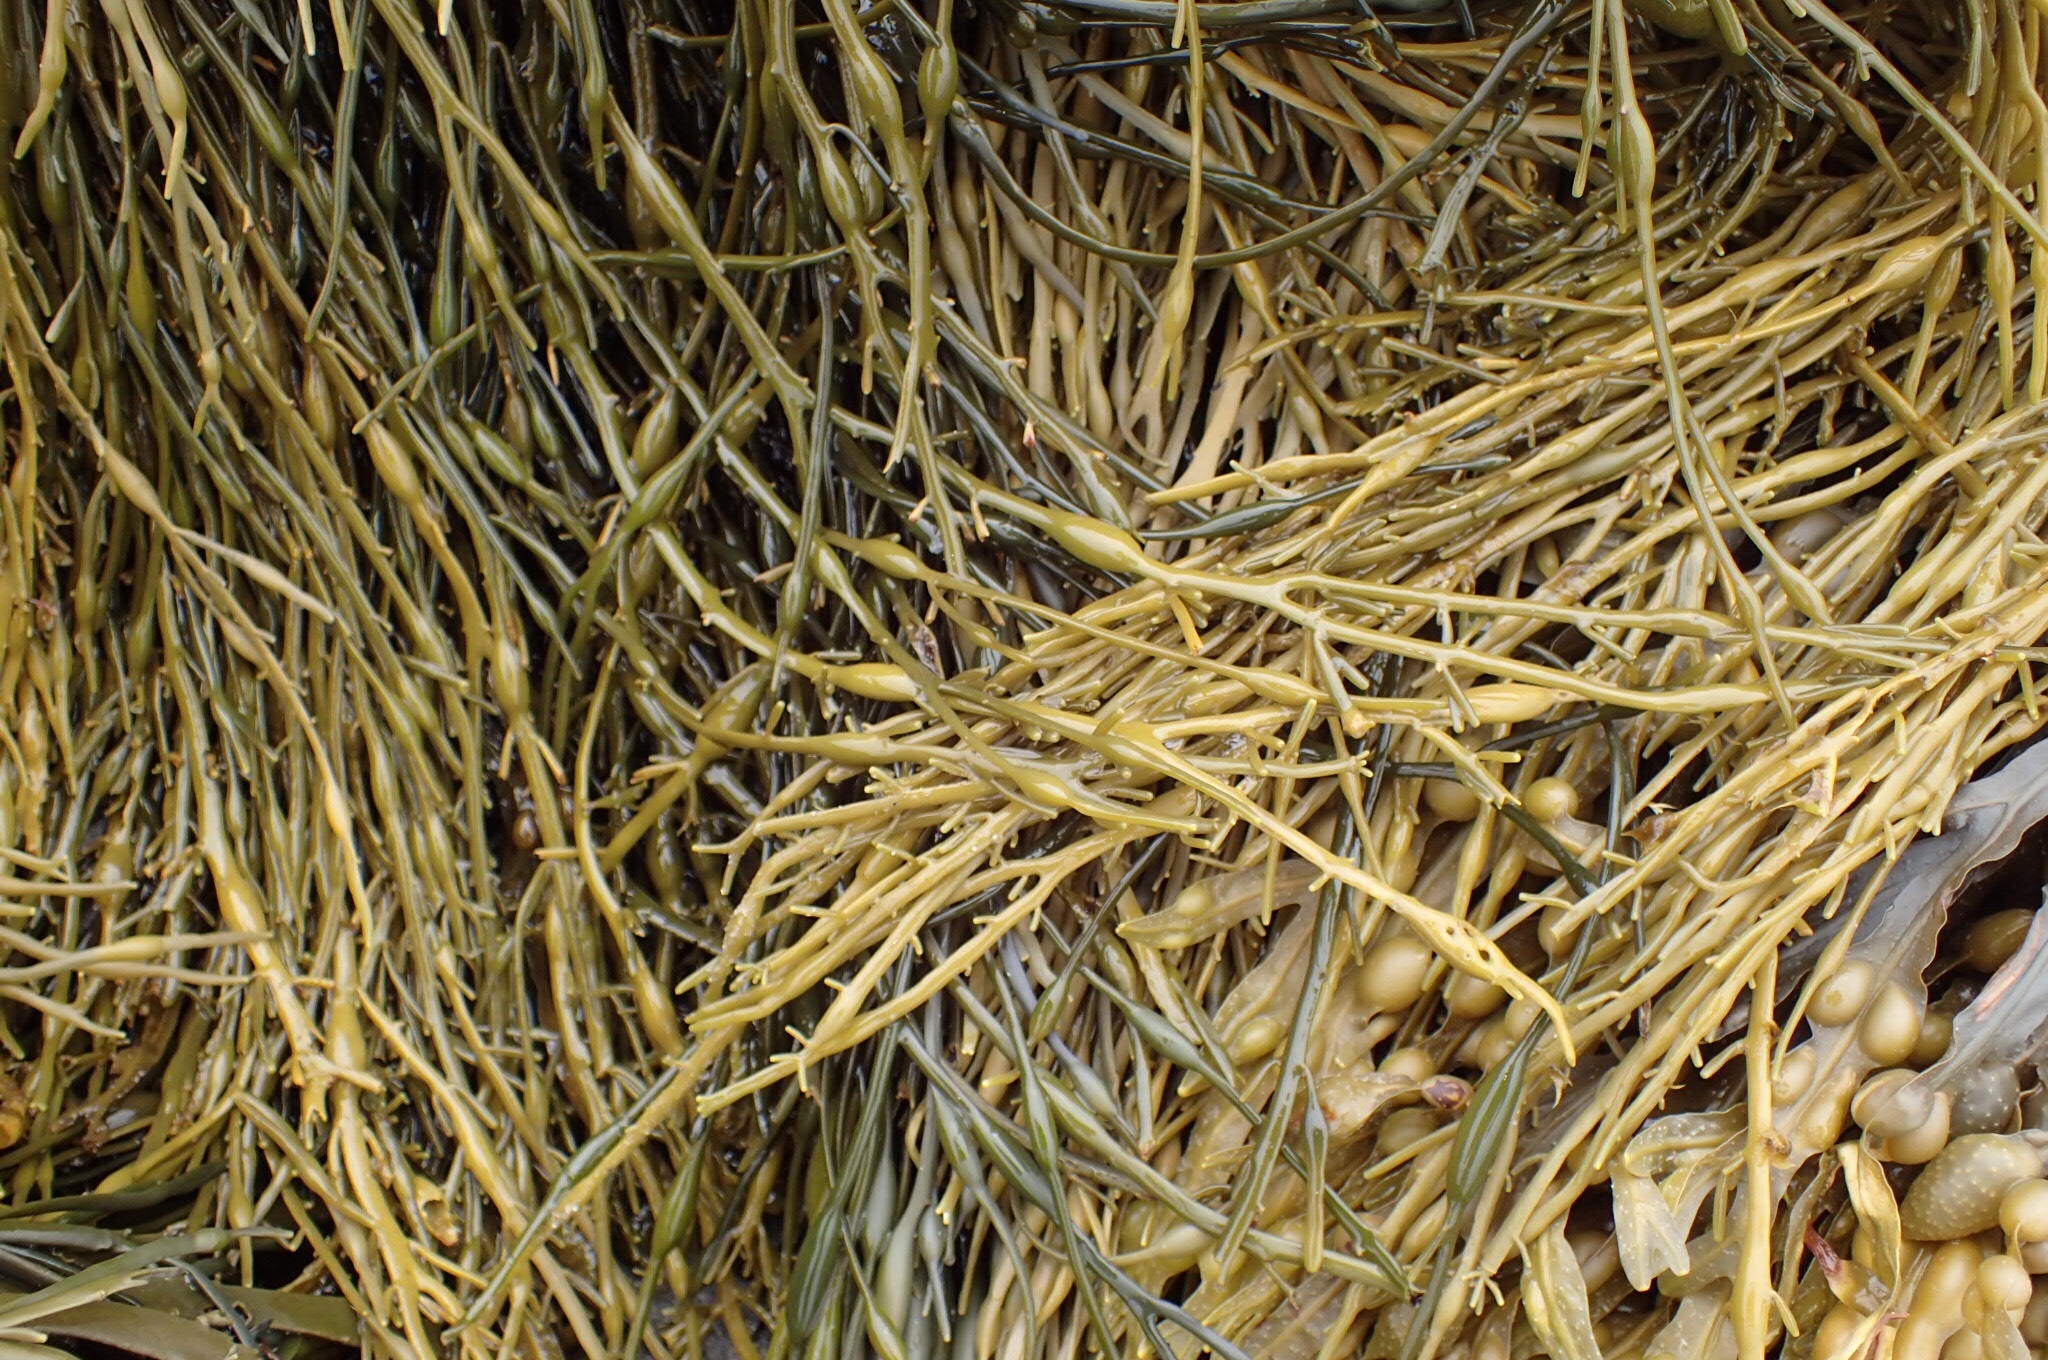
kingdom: Chromista
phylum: Ochrophyta
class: Phaeophyceae
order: Fucales
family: Fucaceae
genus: Ascophyllum
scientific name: Ascophyllum nodosum
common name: Knotted wrack
